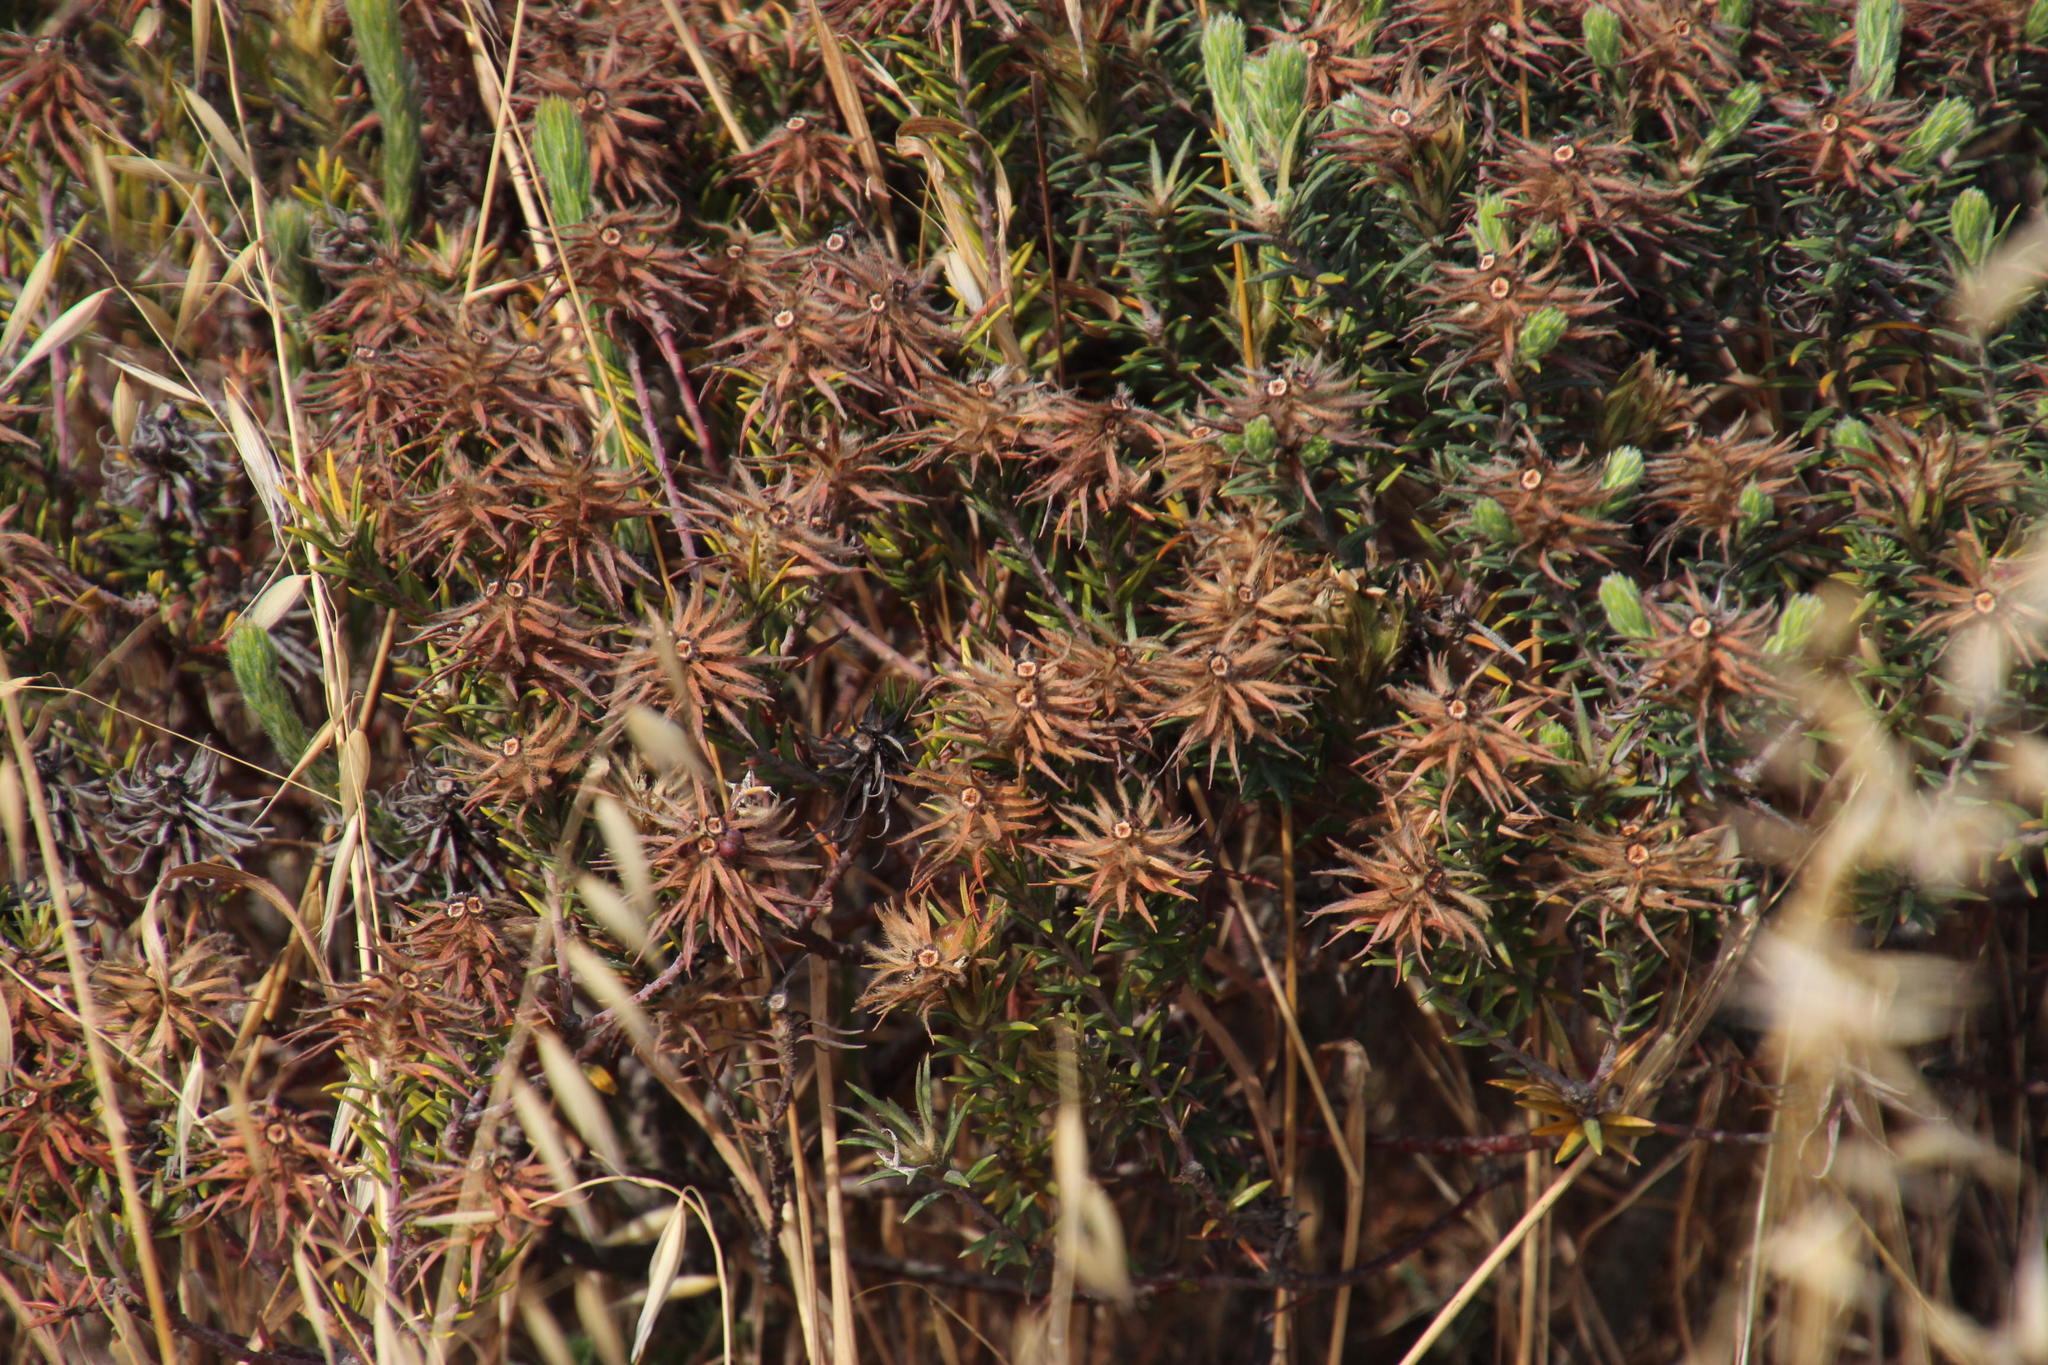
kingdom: Plantae
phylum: Tracheophyta
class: Magnoliopsida
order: Rosales
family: Rhamnaceae
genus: Phylica
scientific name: Phylica plumosa
